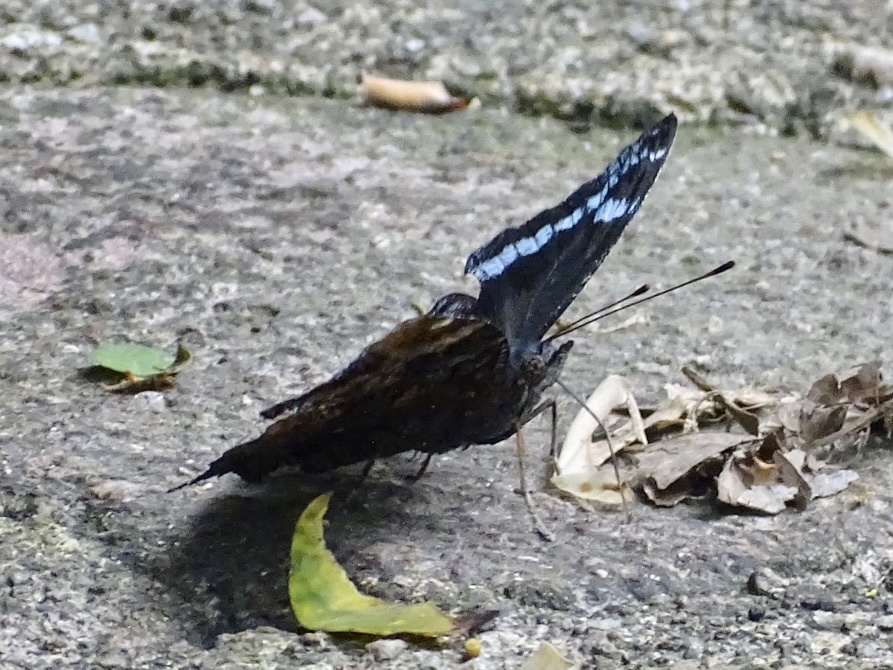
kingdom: Animalia
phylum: Arthropoda
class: Insecta
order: Lepidoptera
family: Nymphalidae
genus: Vanessa
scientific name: Vanessa Kaniska canace
